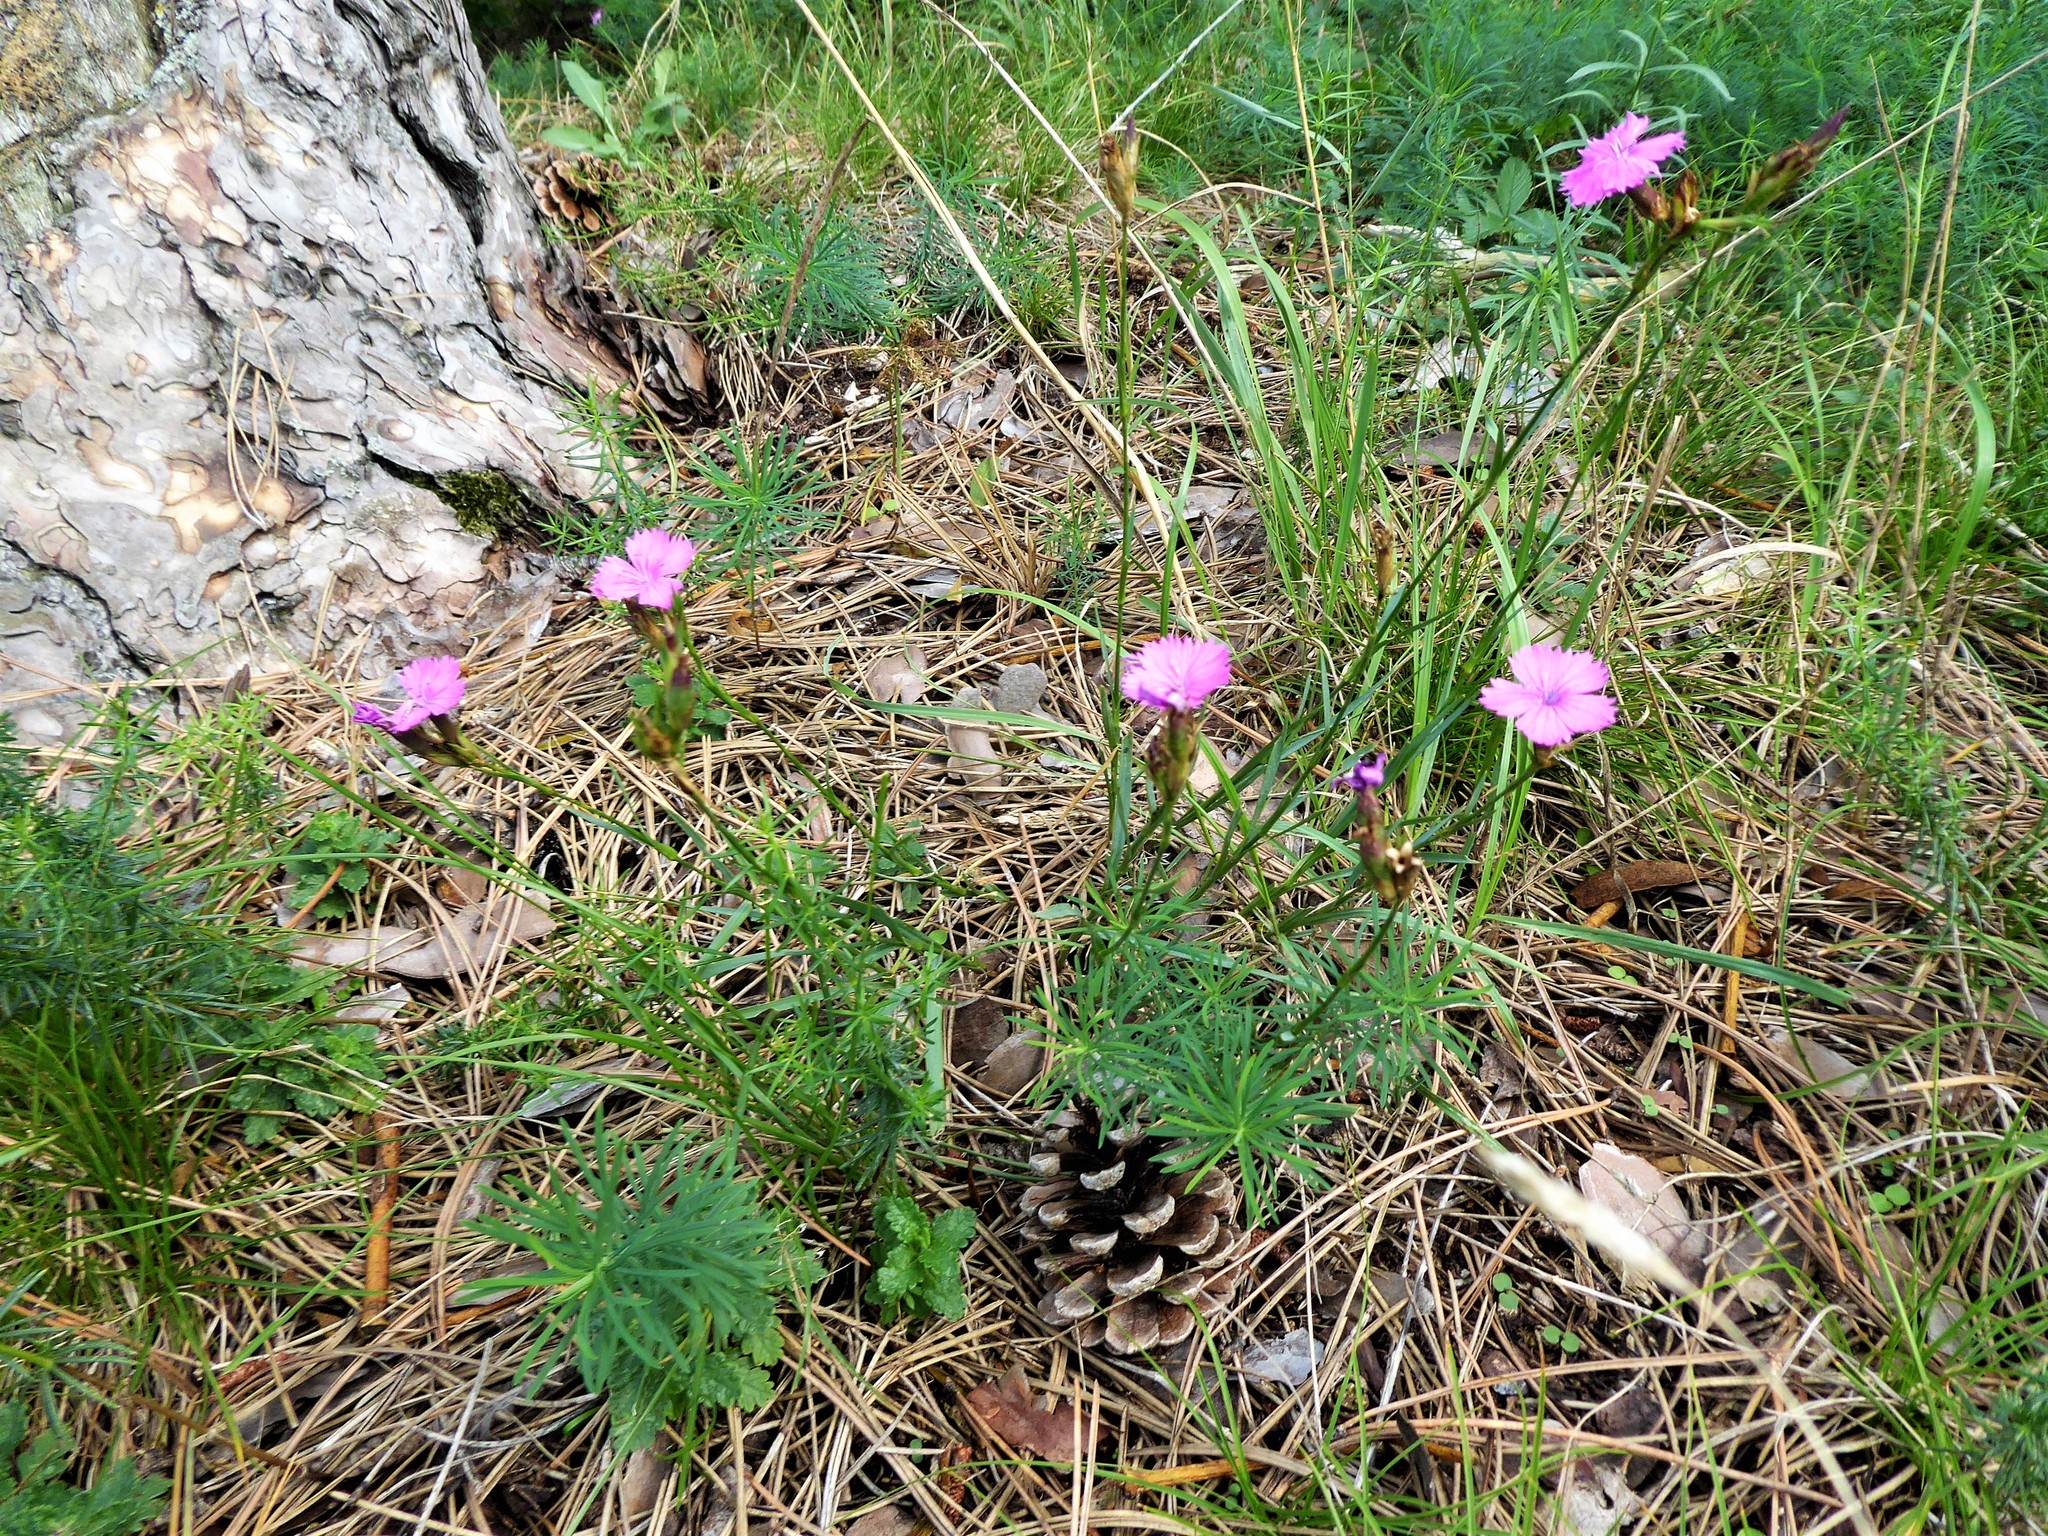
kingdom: Plantae
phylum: Tracheophyta
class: Magnoliopsida
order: Caryophyllales
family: Caryophyllaceae
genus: Dianthus
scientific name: Dianthus carthusianorum
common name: Carthusian pink
